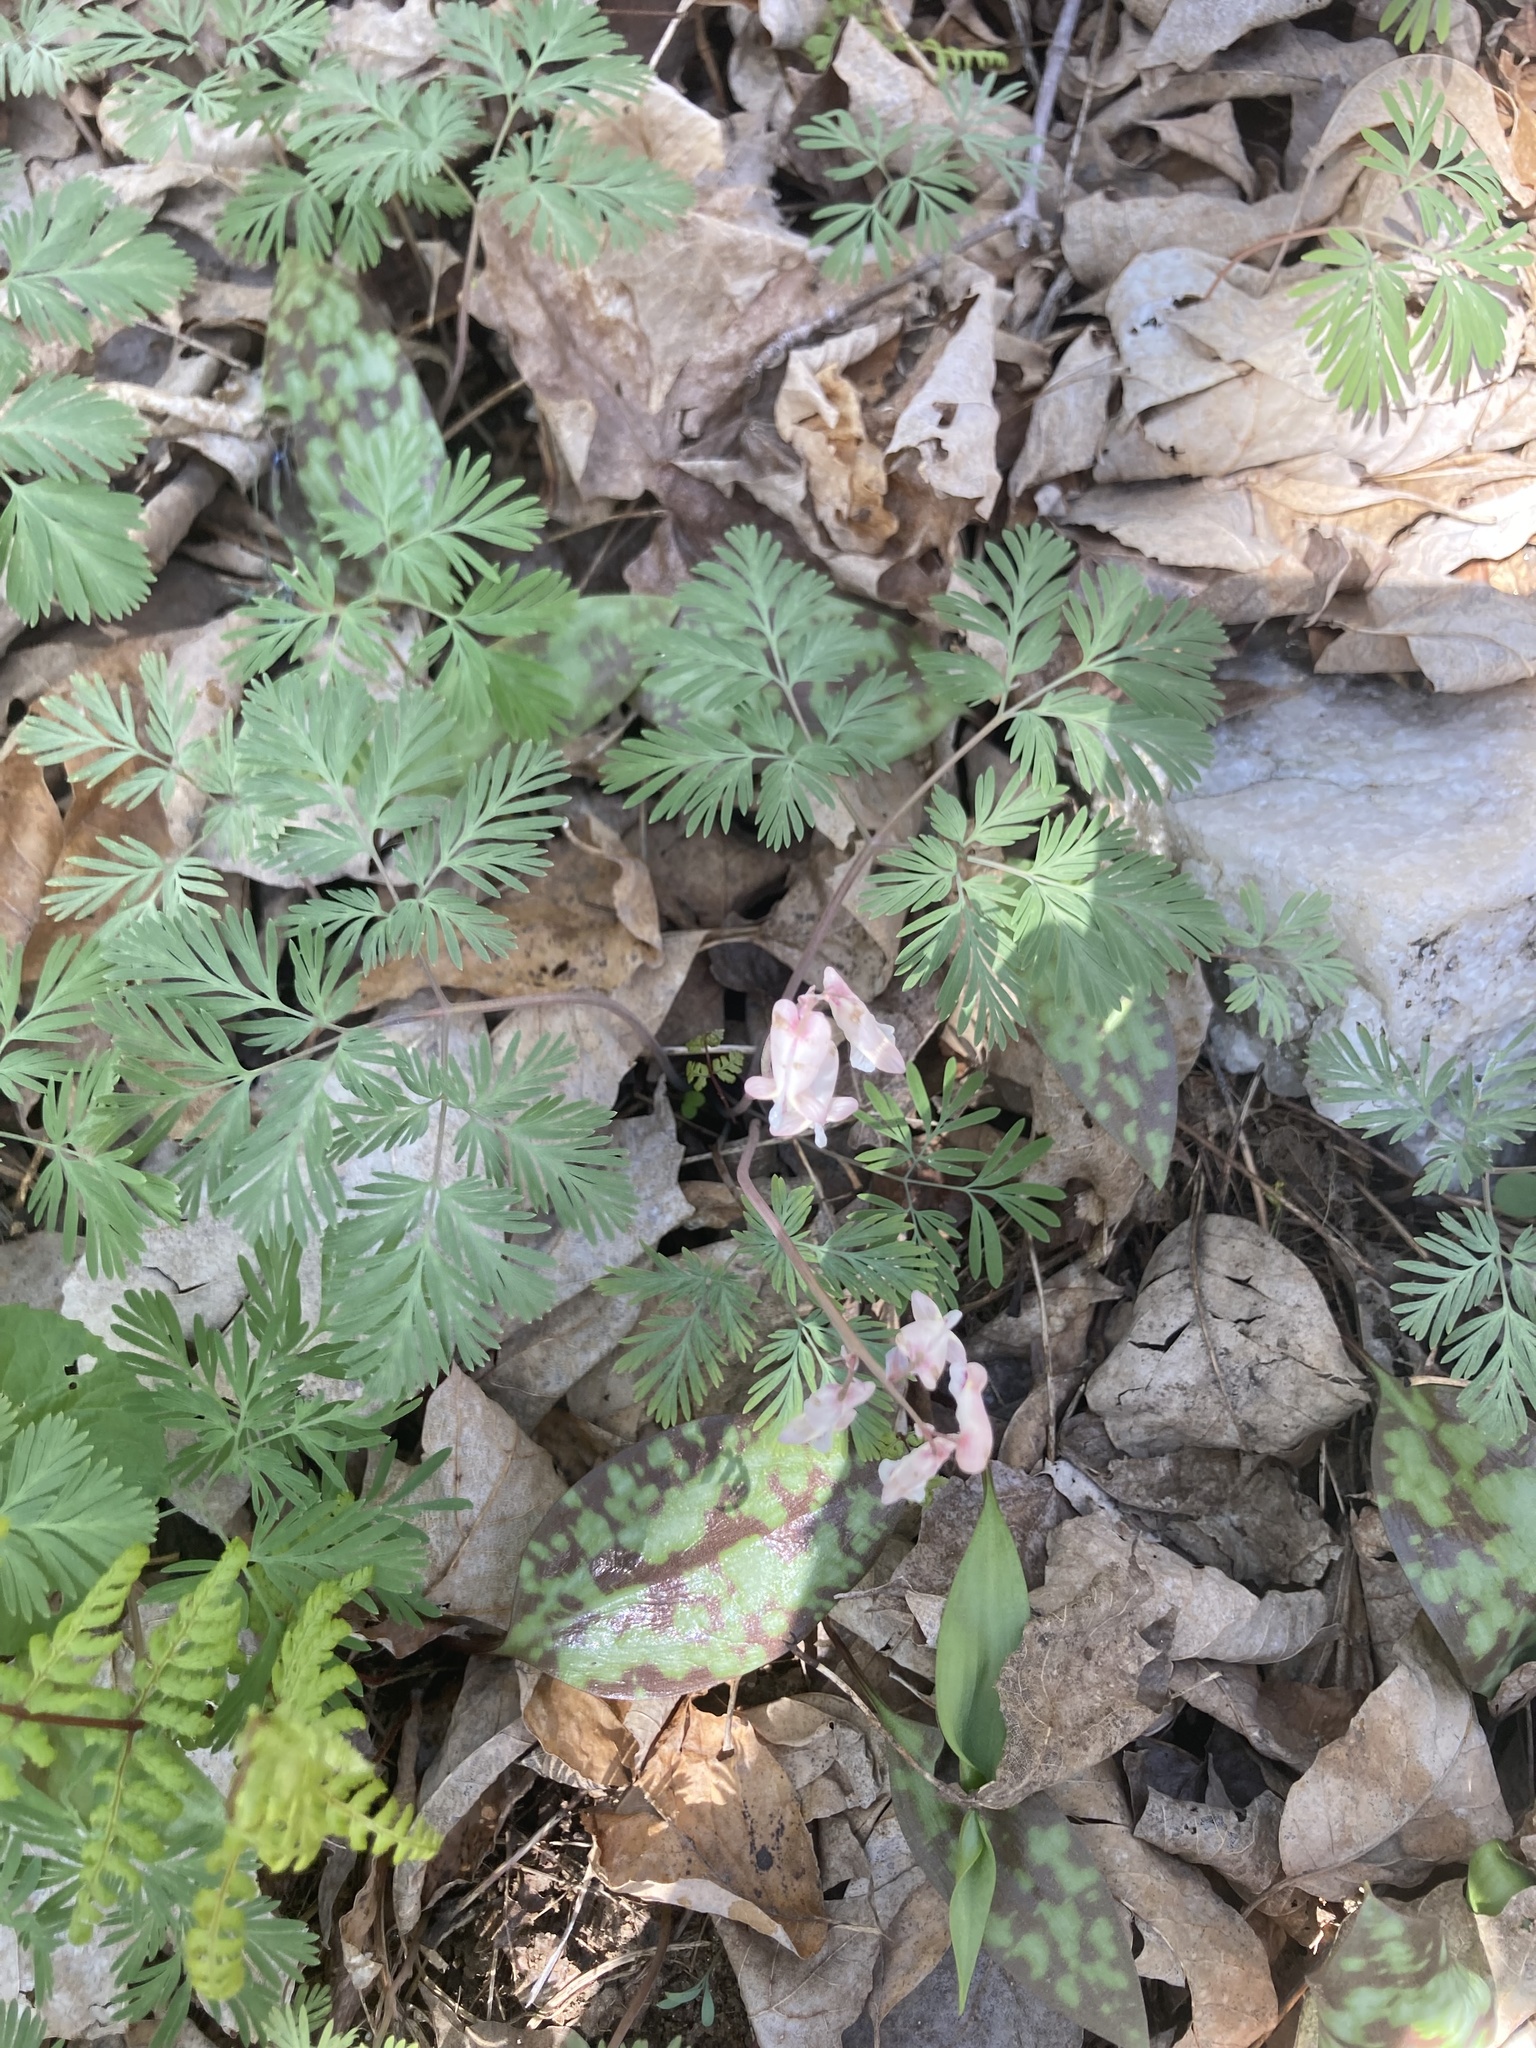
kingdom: Plantae
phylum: Tracheophyta
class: Magnoliopsida
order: Ranunculales
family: Papaveraceae
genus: Dicentra
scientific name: Dicentra canadensis
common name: Squirrel-corn
